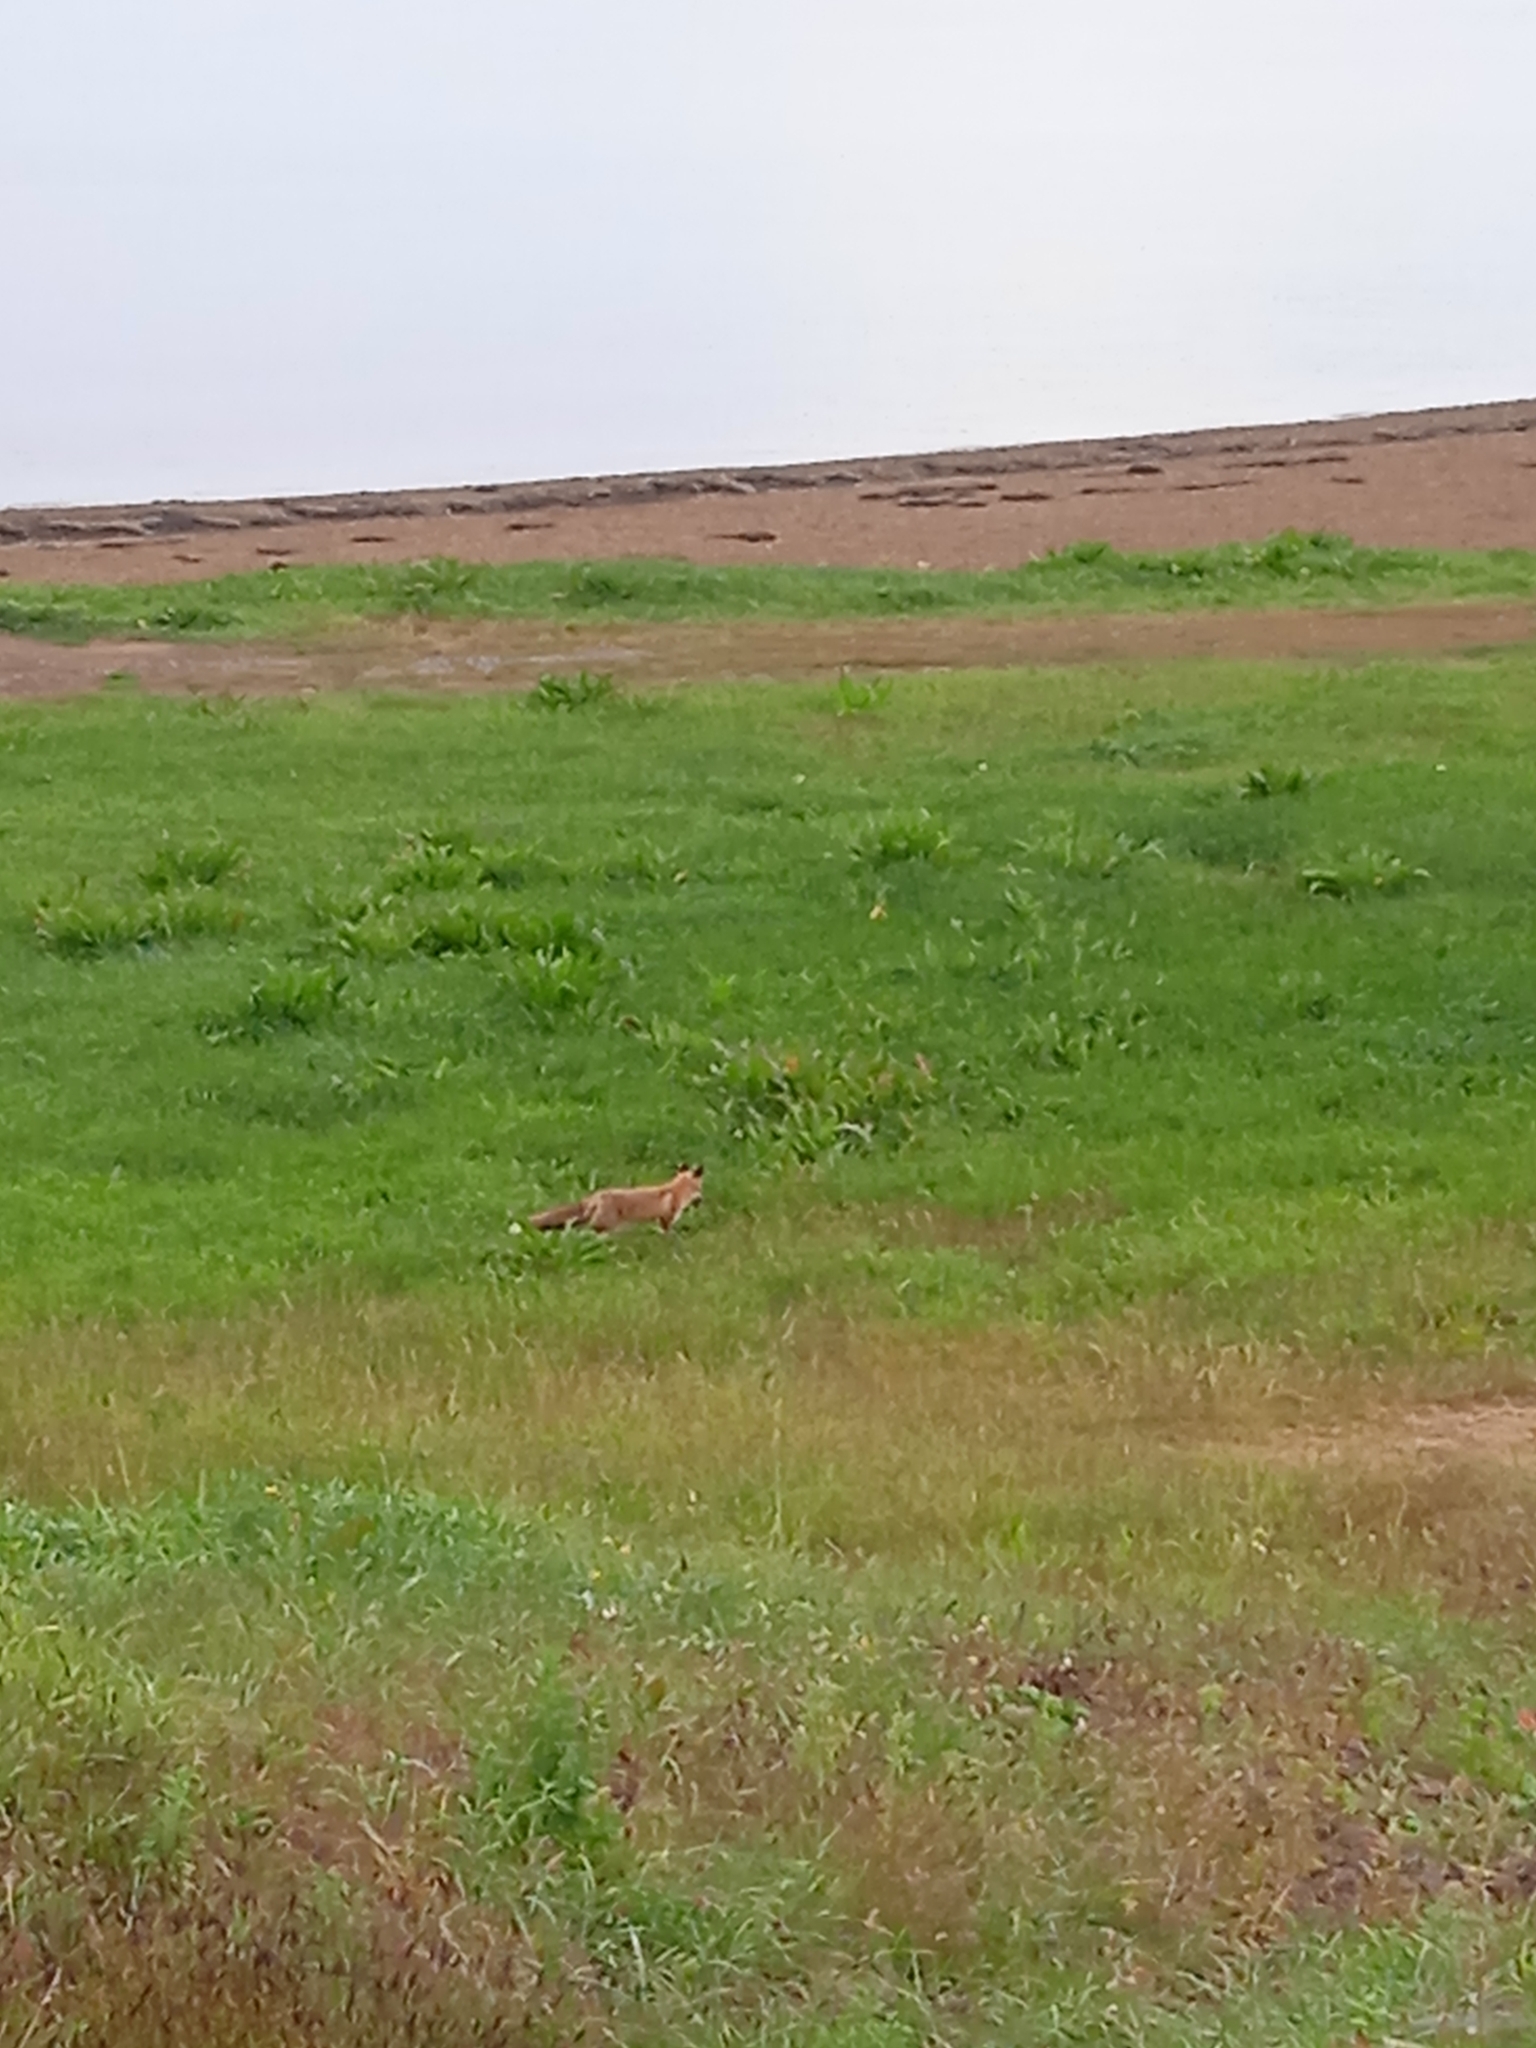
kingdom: Animalia
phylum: Chordata
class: Mammalia
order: Carnivora
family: Canidae
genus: Vulpes
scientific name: Vulpes vulpes
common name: Red fox
